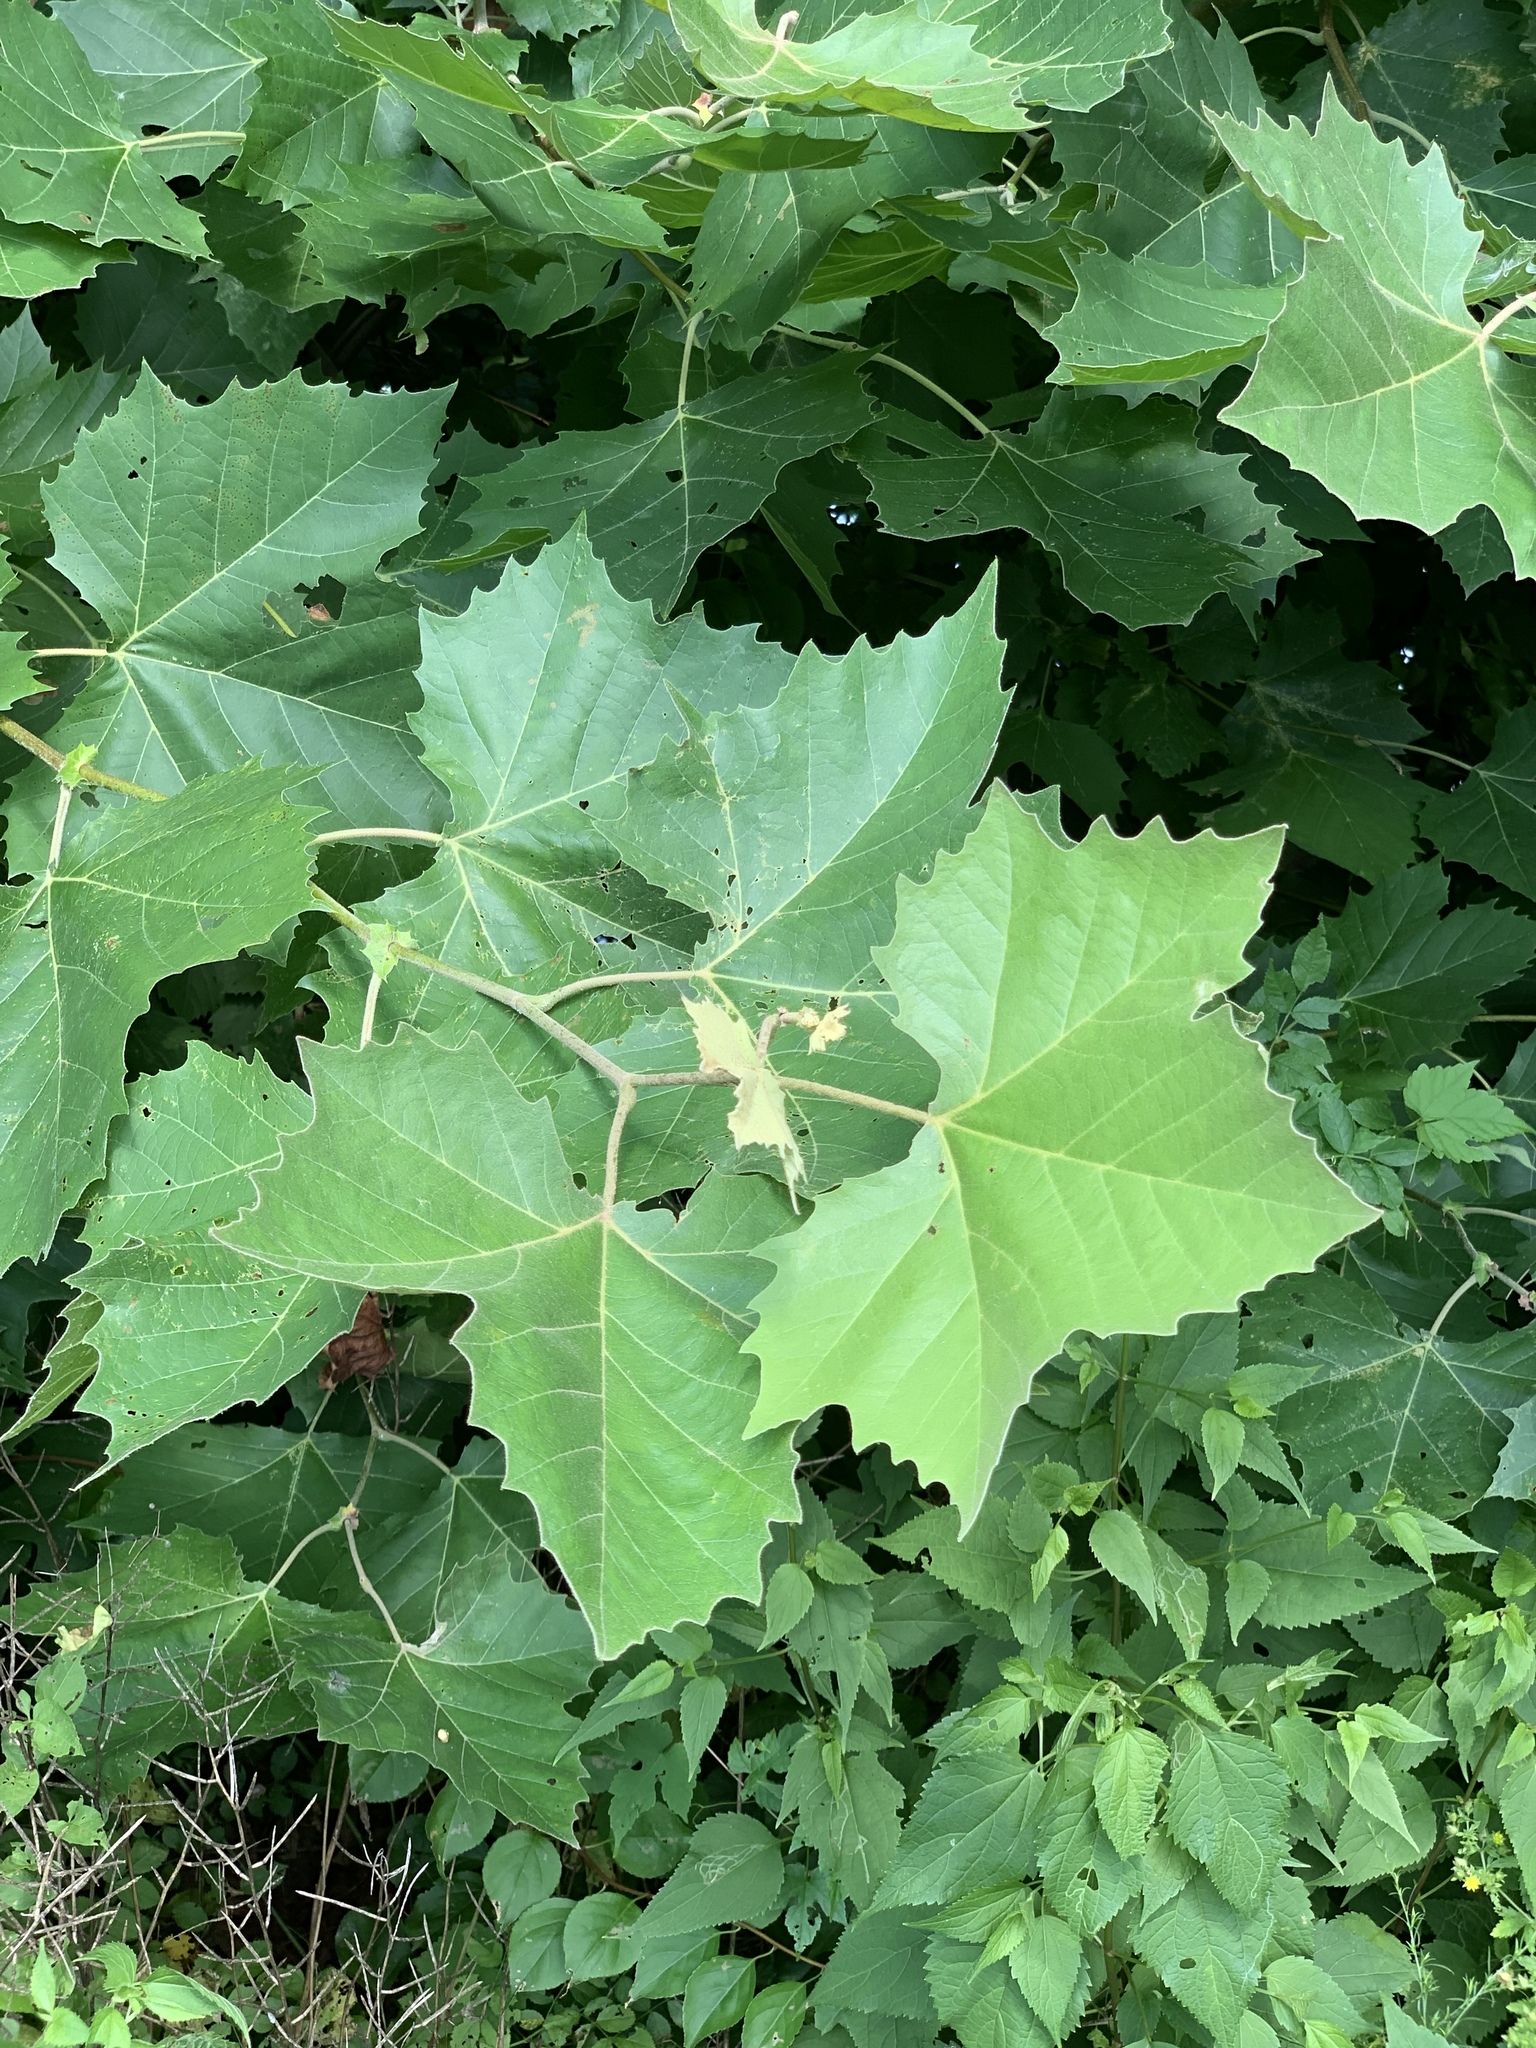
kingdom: Plantae
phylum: Tracheophyta
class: Magnoliopsida
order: Proteales
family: Platanaceae
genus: Platanus
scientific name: Platanus occidentalis
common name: American sycamore
